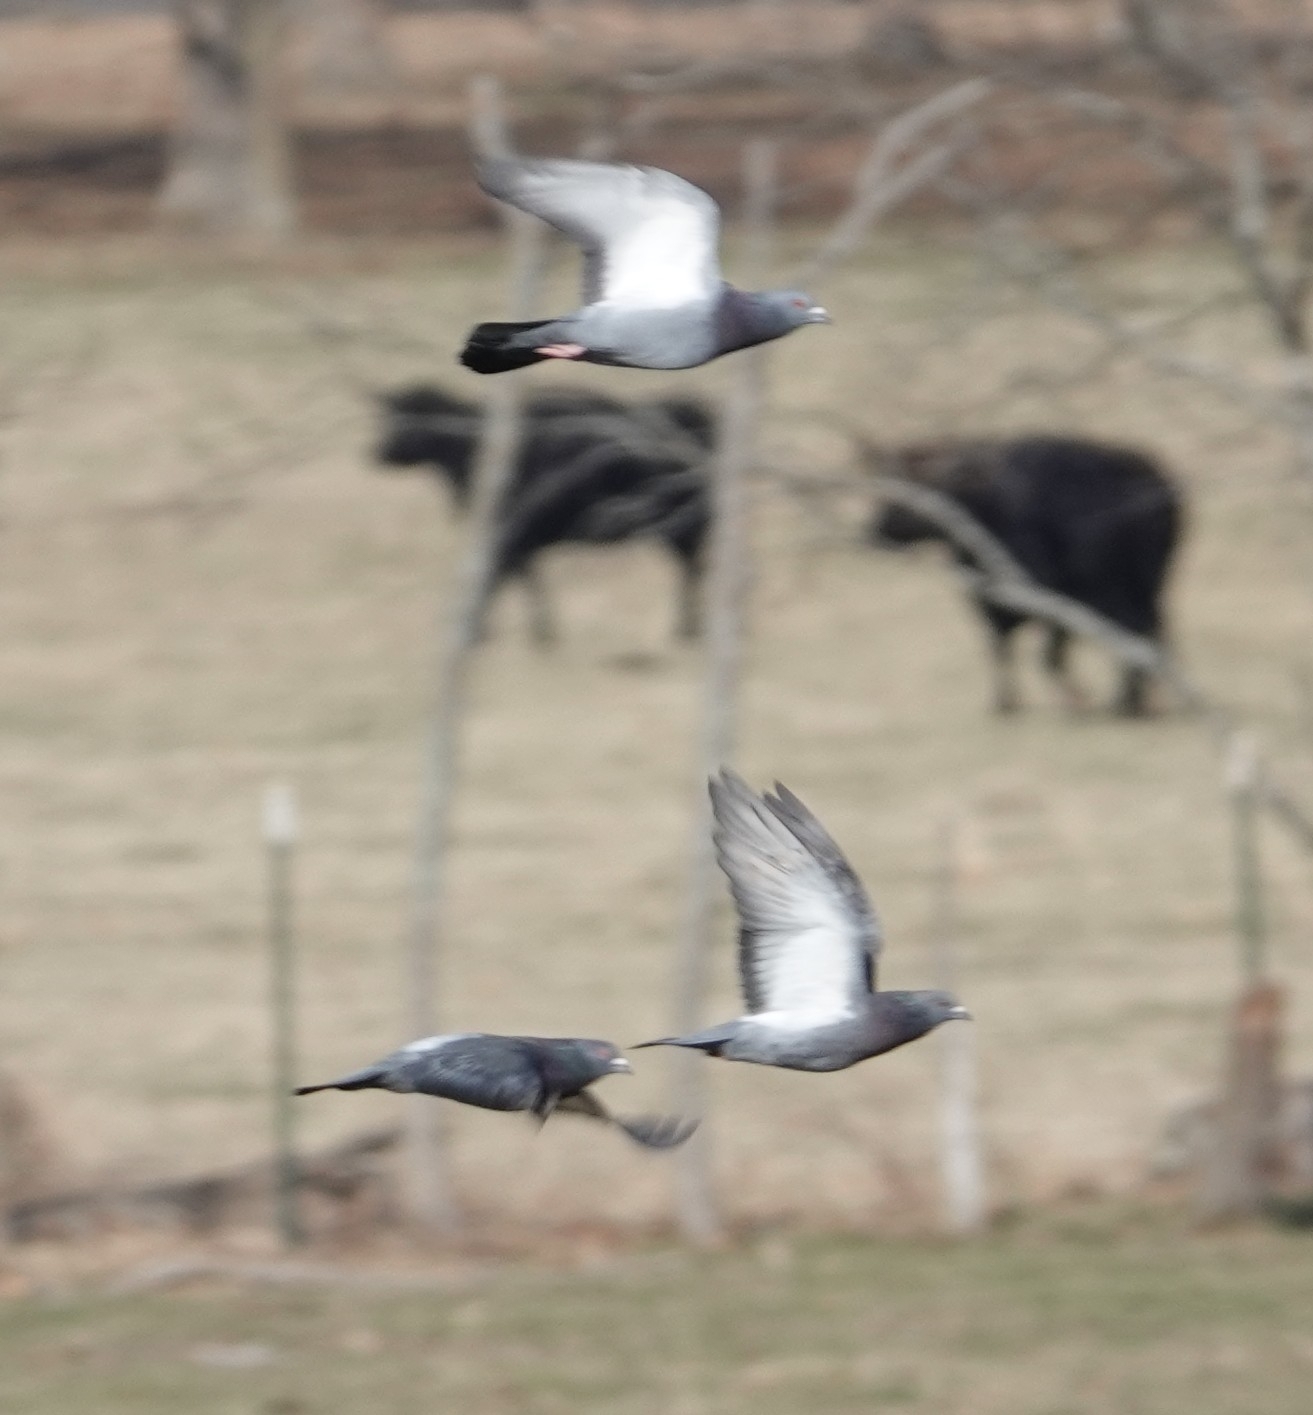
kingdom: Animalia
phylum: Chordata
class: Aves
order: Columbiformes
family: Columbidae
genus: Columba
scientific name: Columba livia
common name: Rock pigeon
